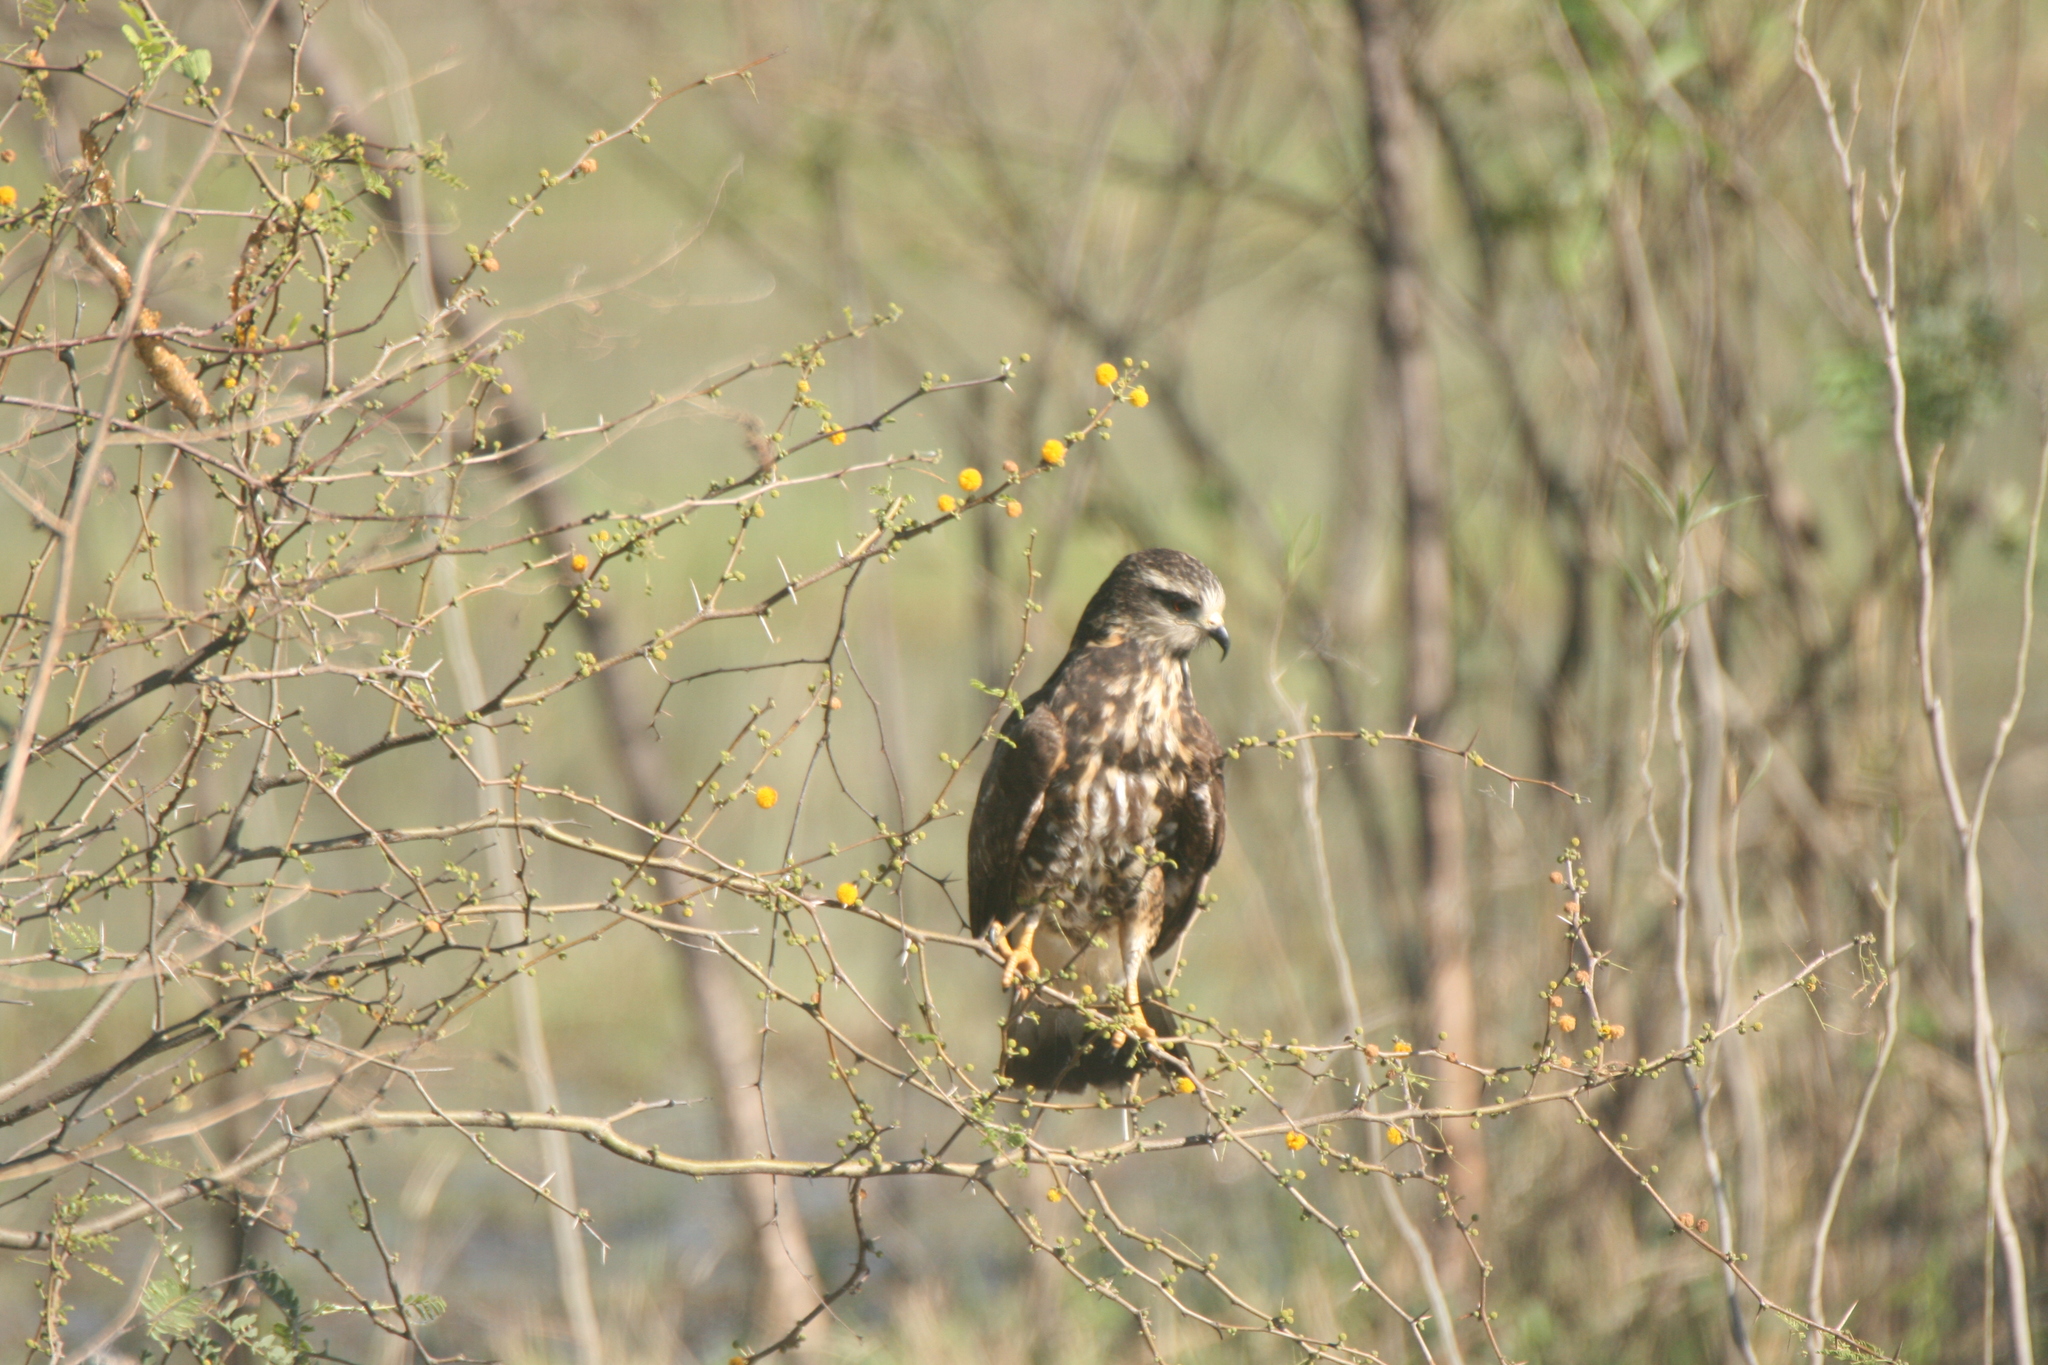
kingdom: Animalia
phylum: Chordata
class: Aves
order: Accipitriformes
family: Accipitridae
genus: Rostrhamus
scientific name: Rostrhamus sociabilis
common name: Snail kite
